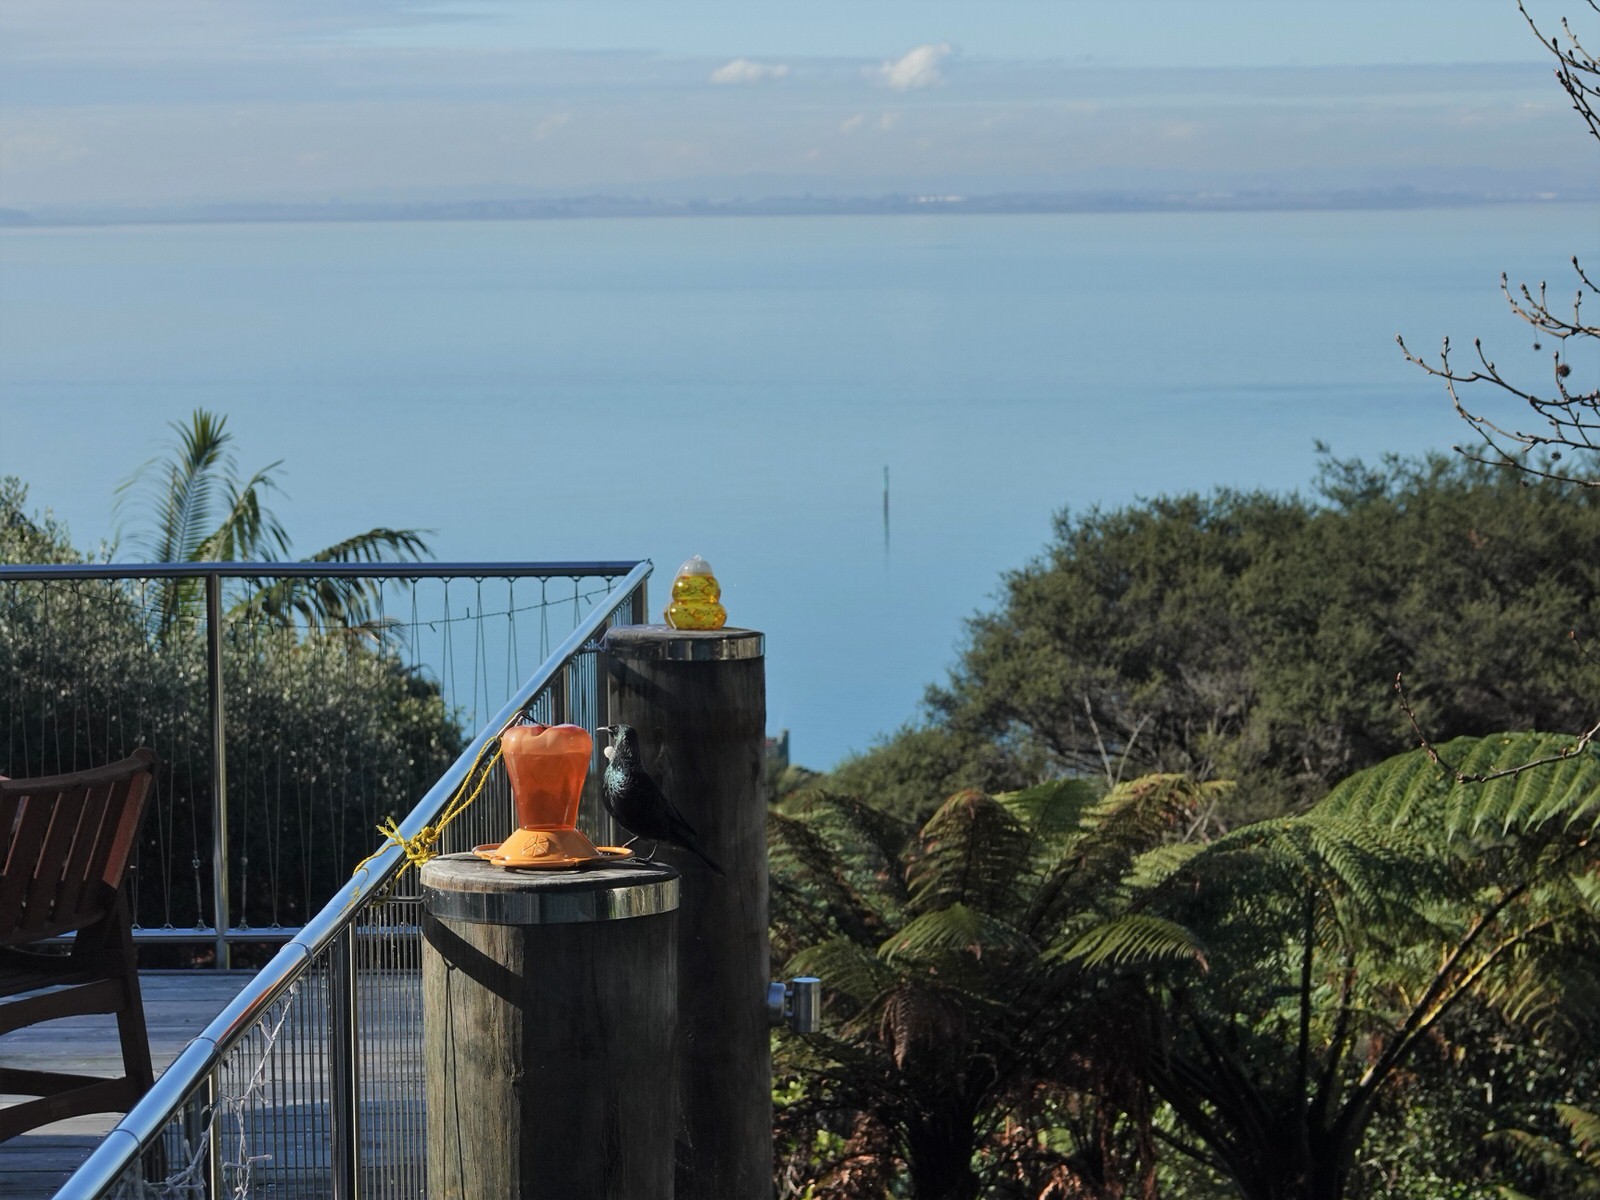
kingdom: Animalia
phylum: Chordata
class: Aves
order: Passeriformes
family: Meliphagidae
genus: Prosthemadera
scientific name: Prosthemadera novaeseelandiae
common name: Tui
